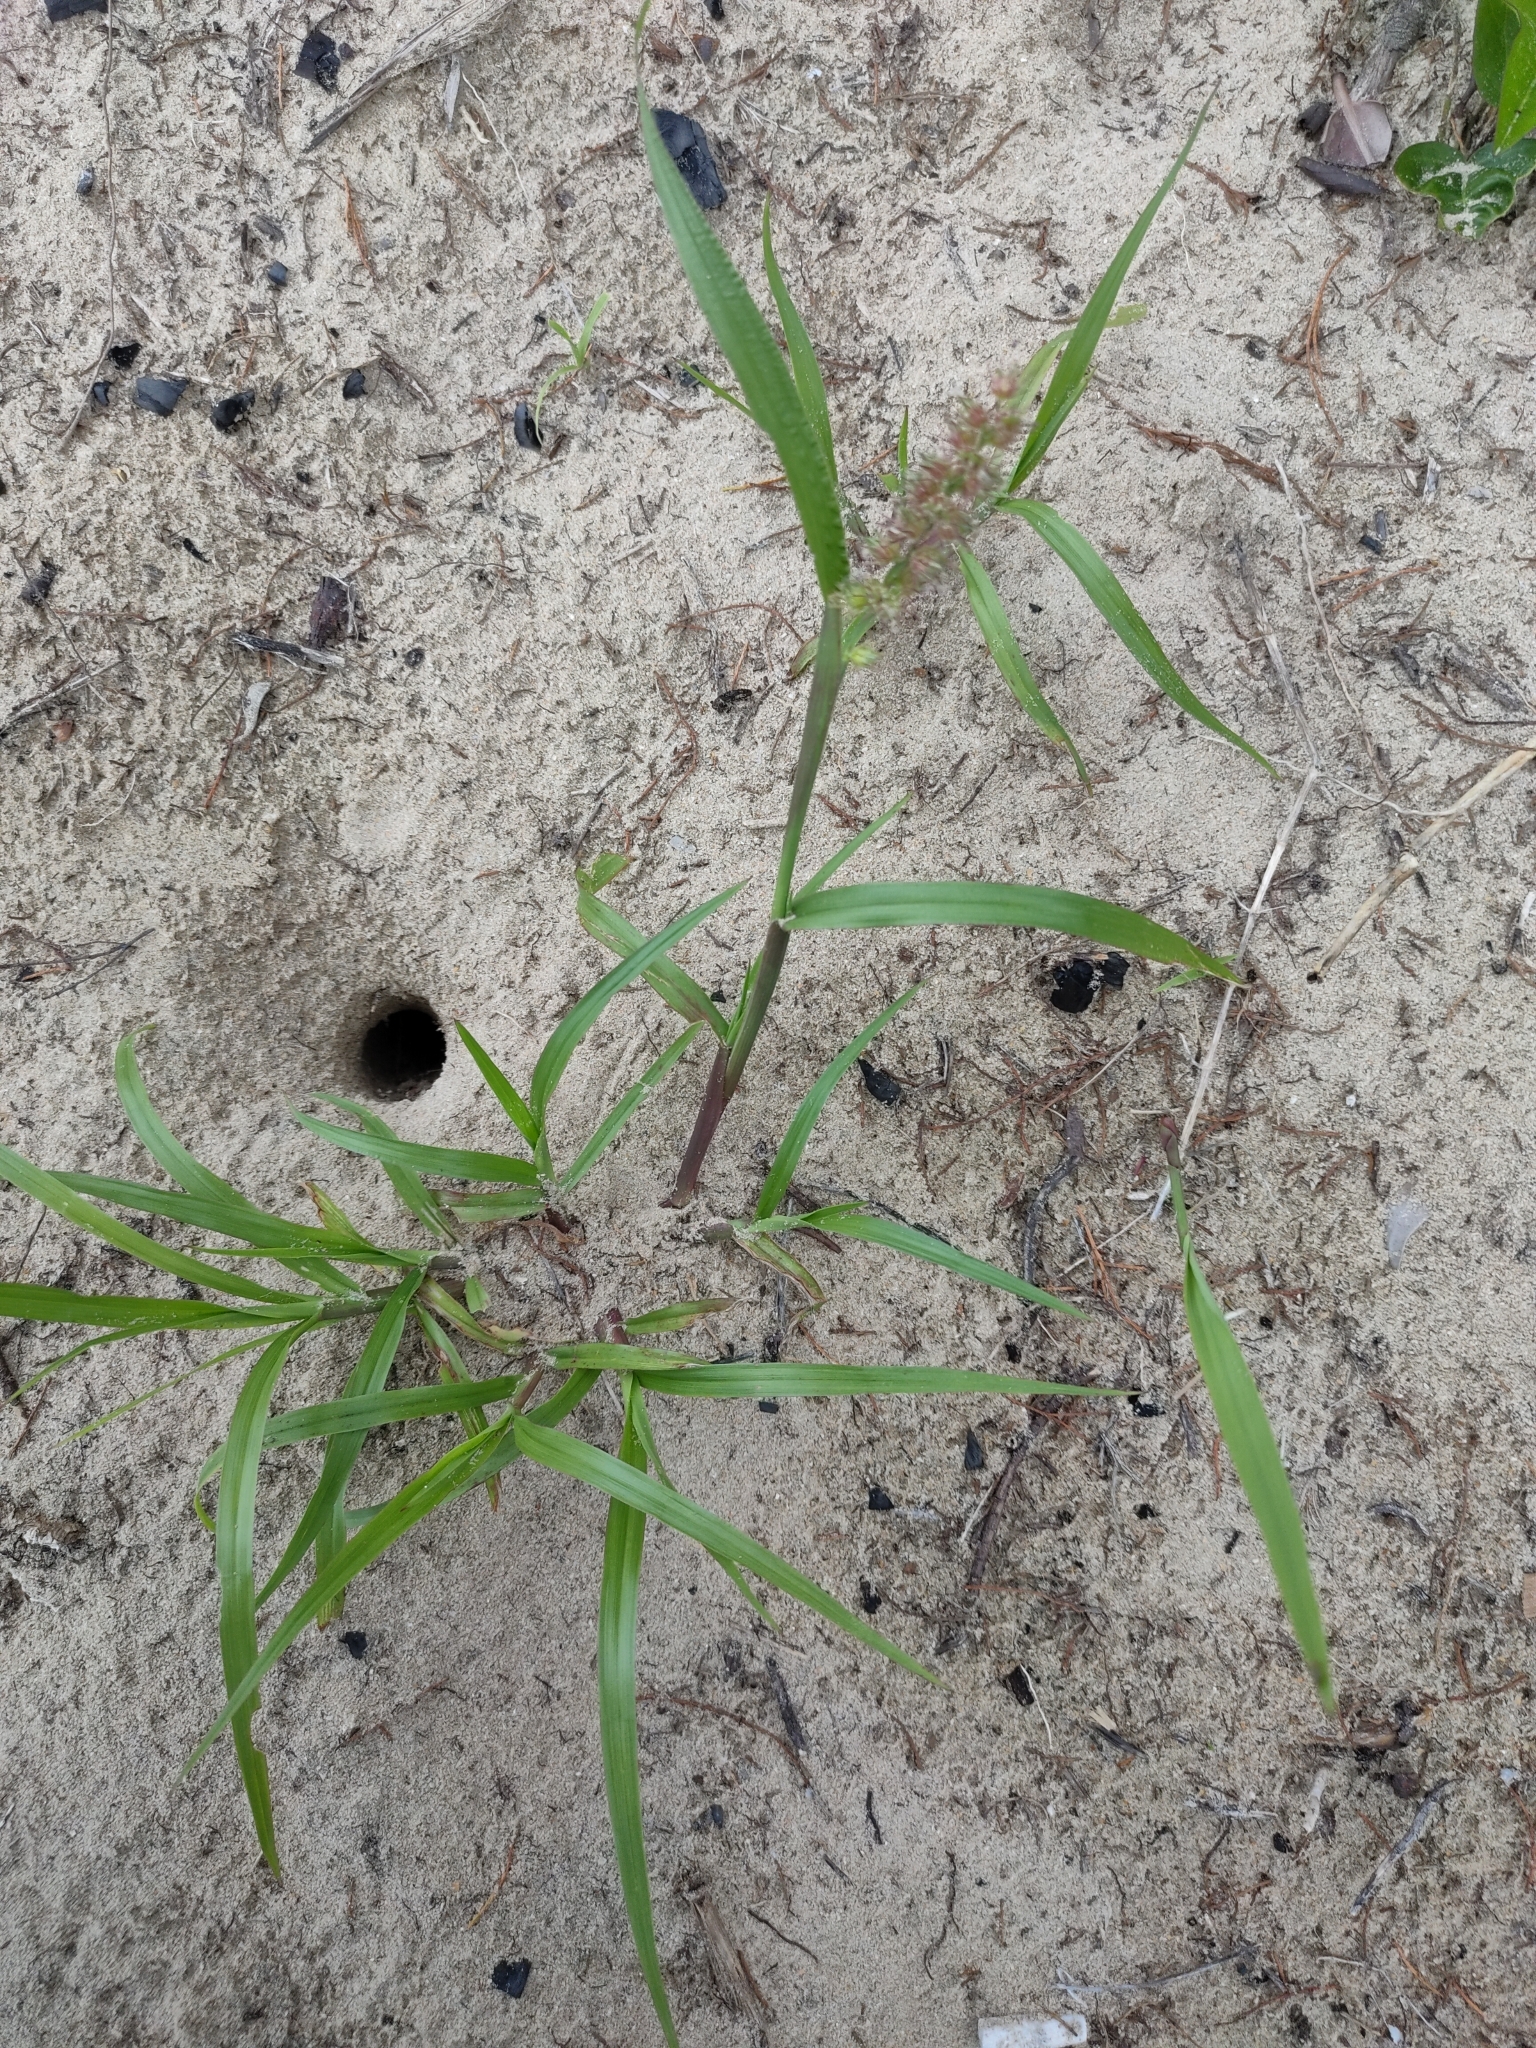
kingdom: Plantae
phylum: Tracheophyta
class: Liliopsida
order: Poales
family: Poaceae
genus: Cenchrus
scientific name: Cenchrus echinatus
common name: Southern sandbur
